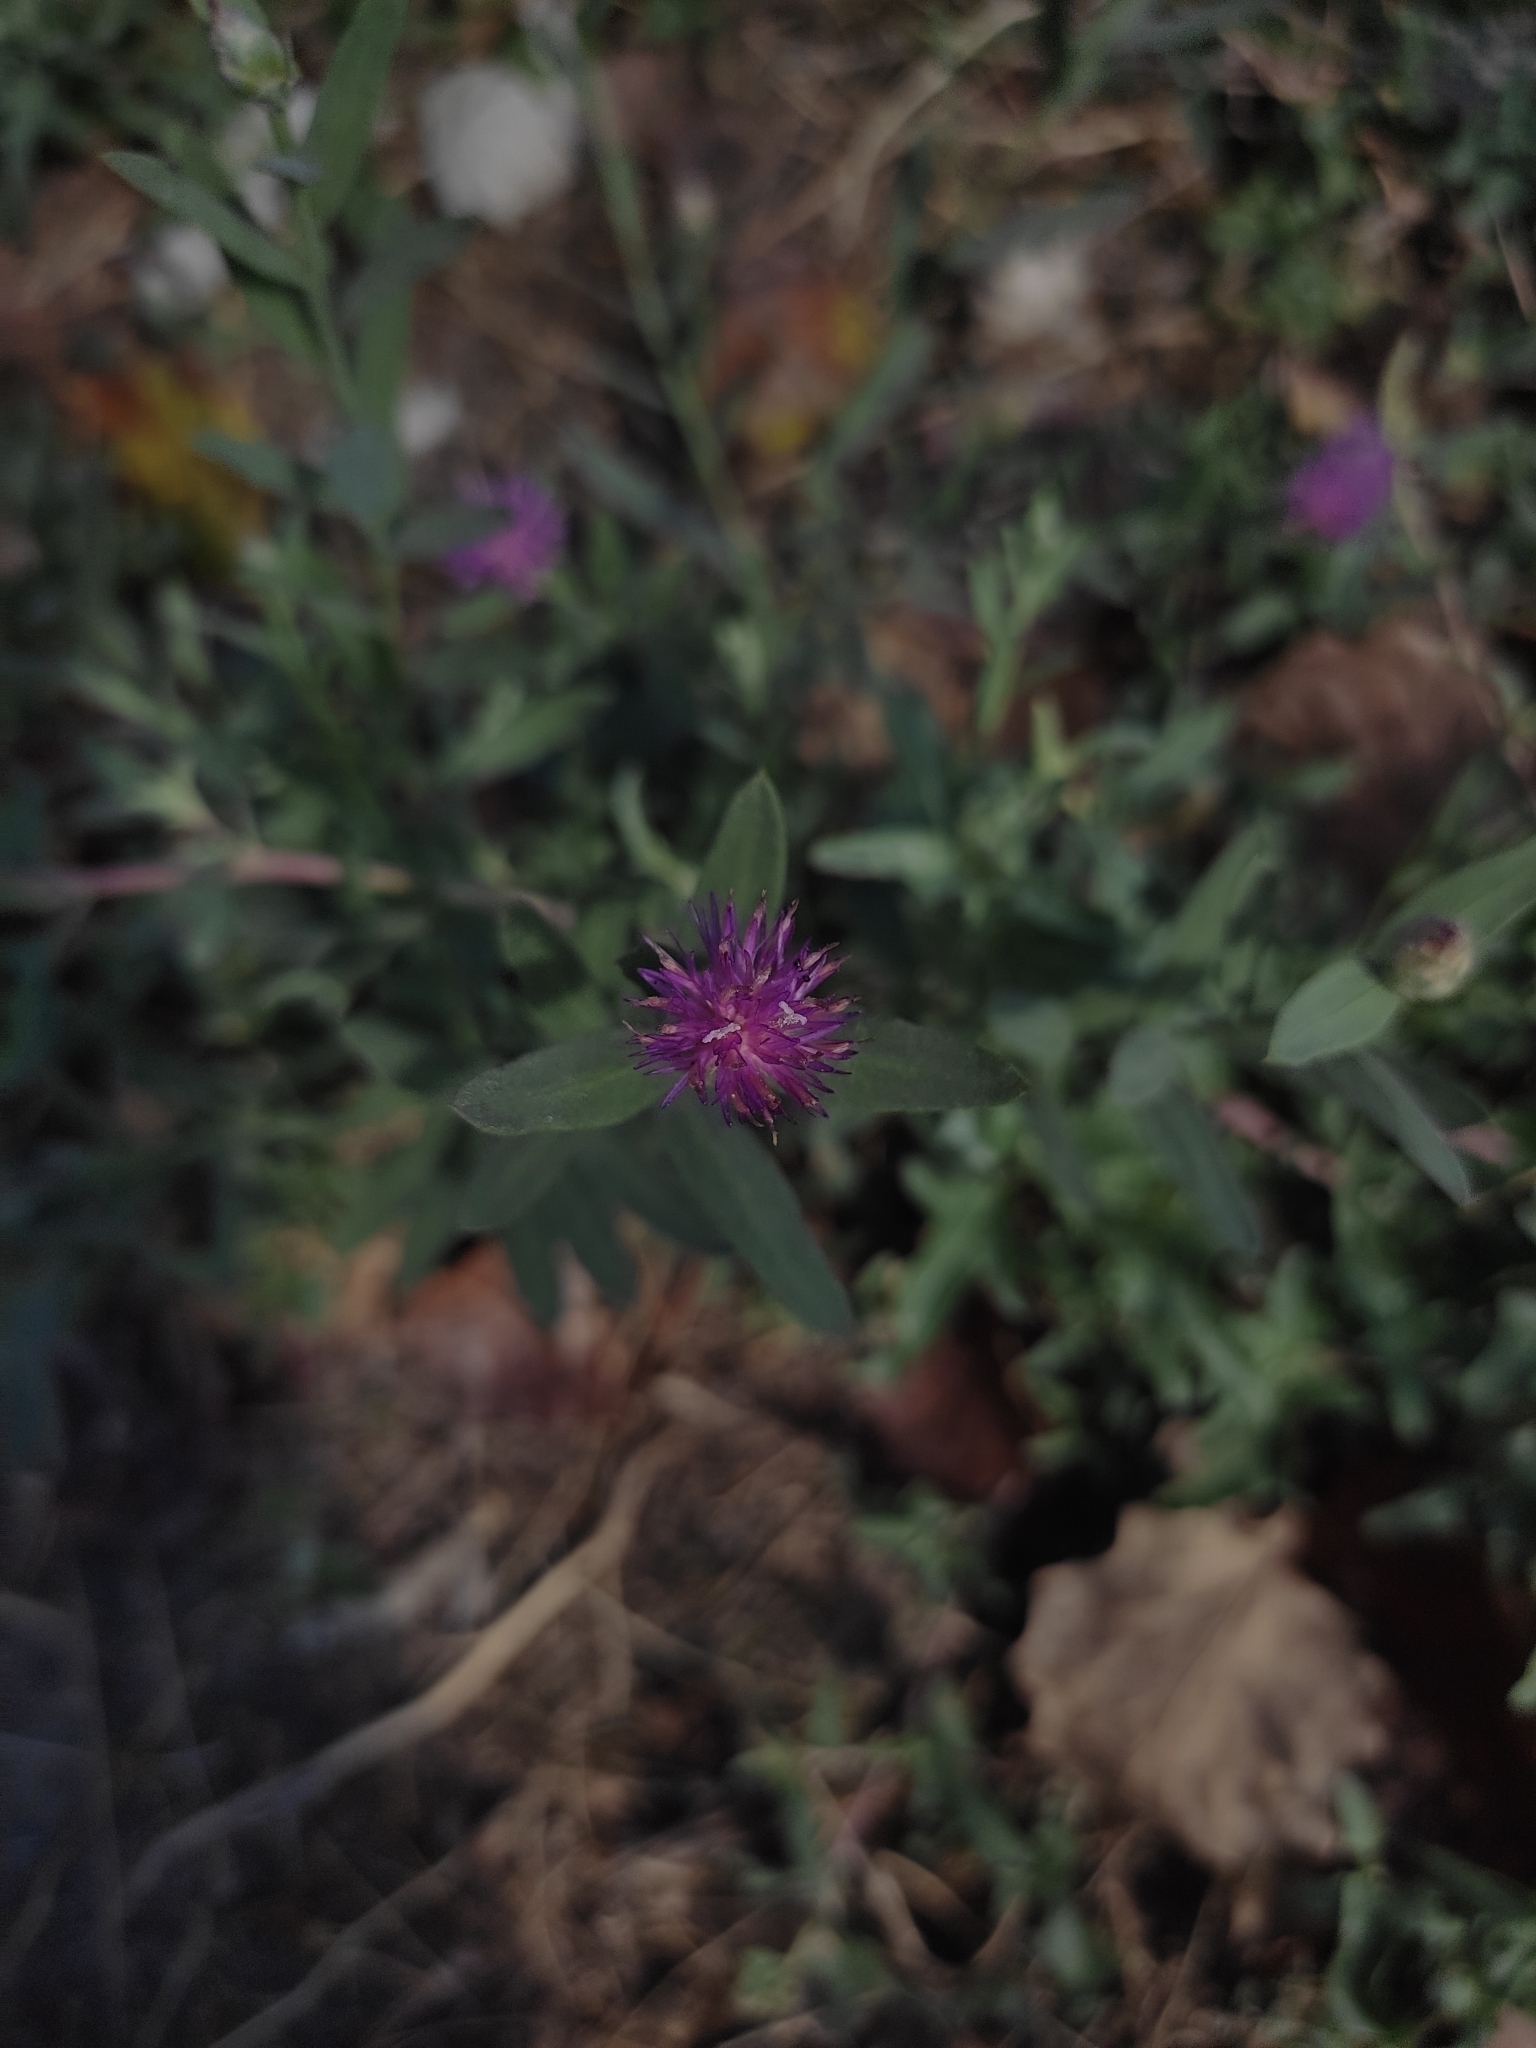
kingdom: Plantae
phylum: Tracheophyta
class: Magnoliopsida
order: Asterales
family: Asteraceae
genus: Leuzea
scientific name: Leuzea repens
